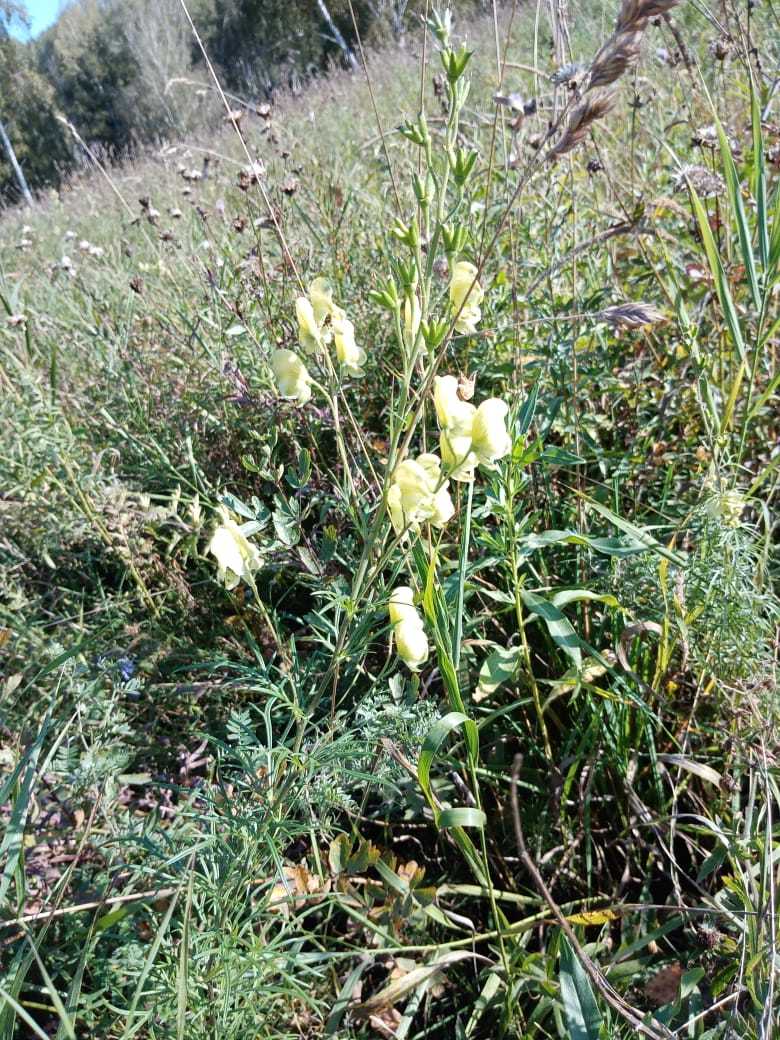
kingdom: Plantae
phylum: Tracheophyta
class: Magnoliopsida
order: Ranunculales
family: Ranunculaceae
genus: Aconitum
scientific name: Aconitum anthora
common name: Yellow monkshood
